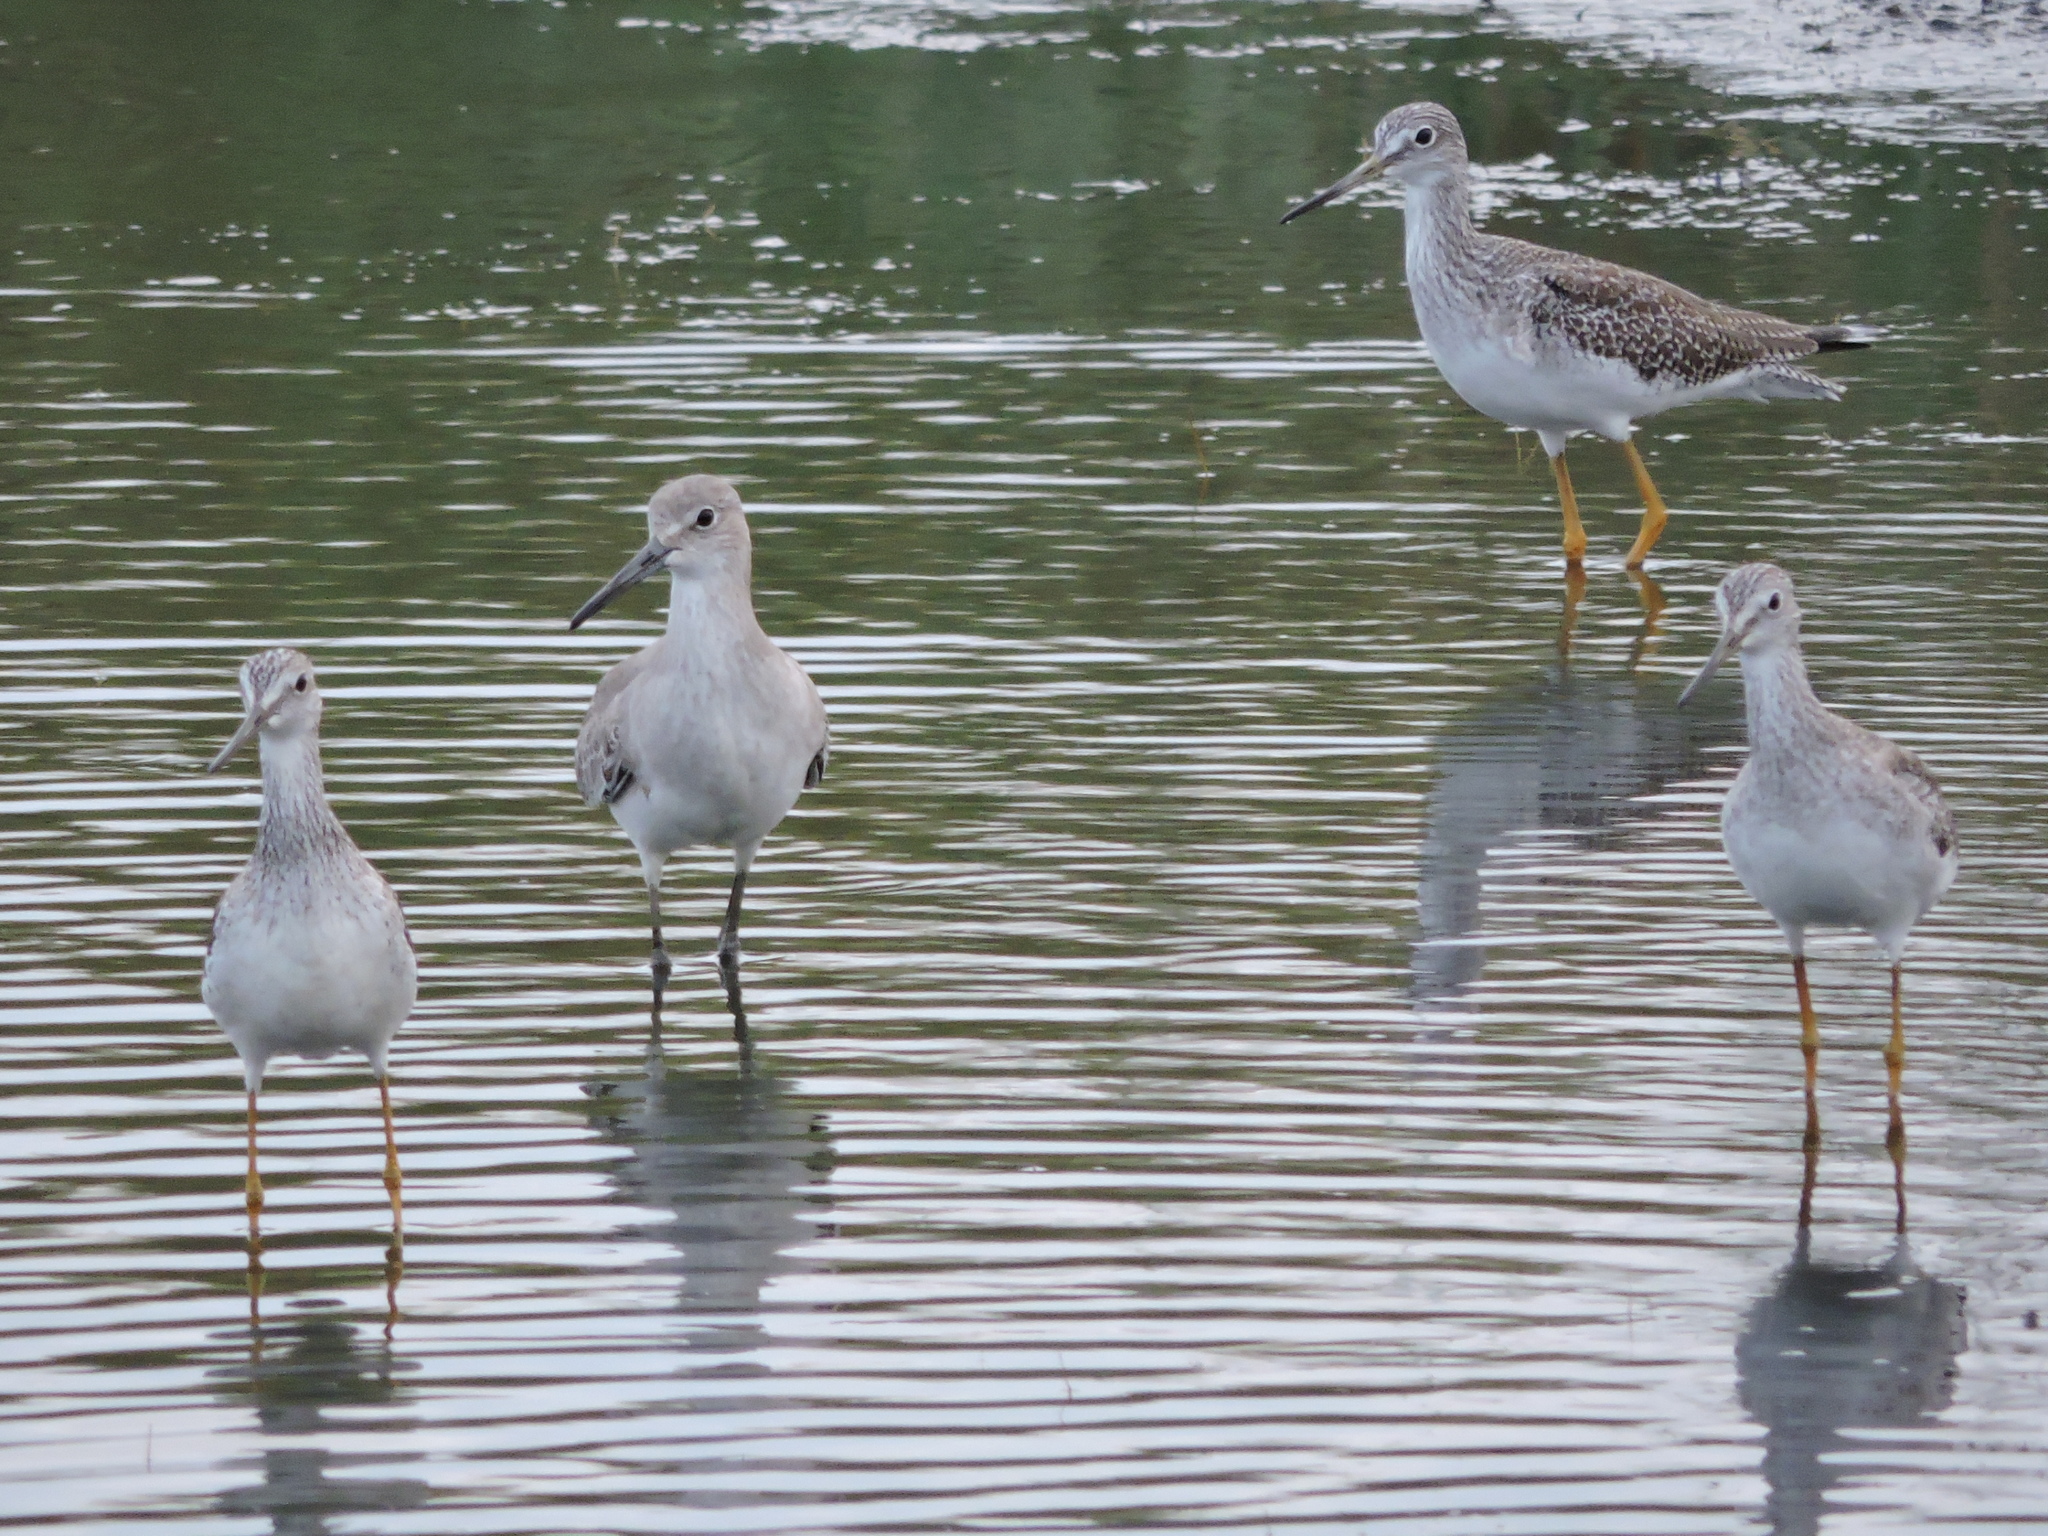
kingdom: Animalia
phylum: Chordata
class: Aves
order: Charadriiformes
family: Scolopacidae
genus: Tringa
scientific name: Tringa melanoleuca
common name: Greater yellowlegs
